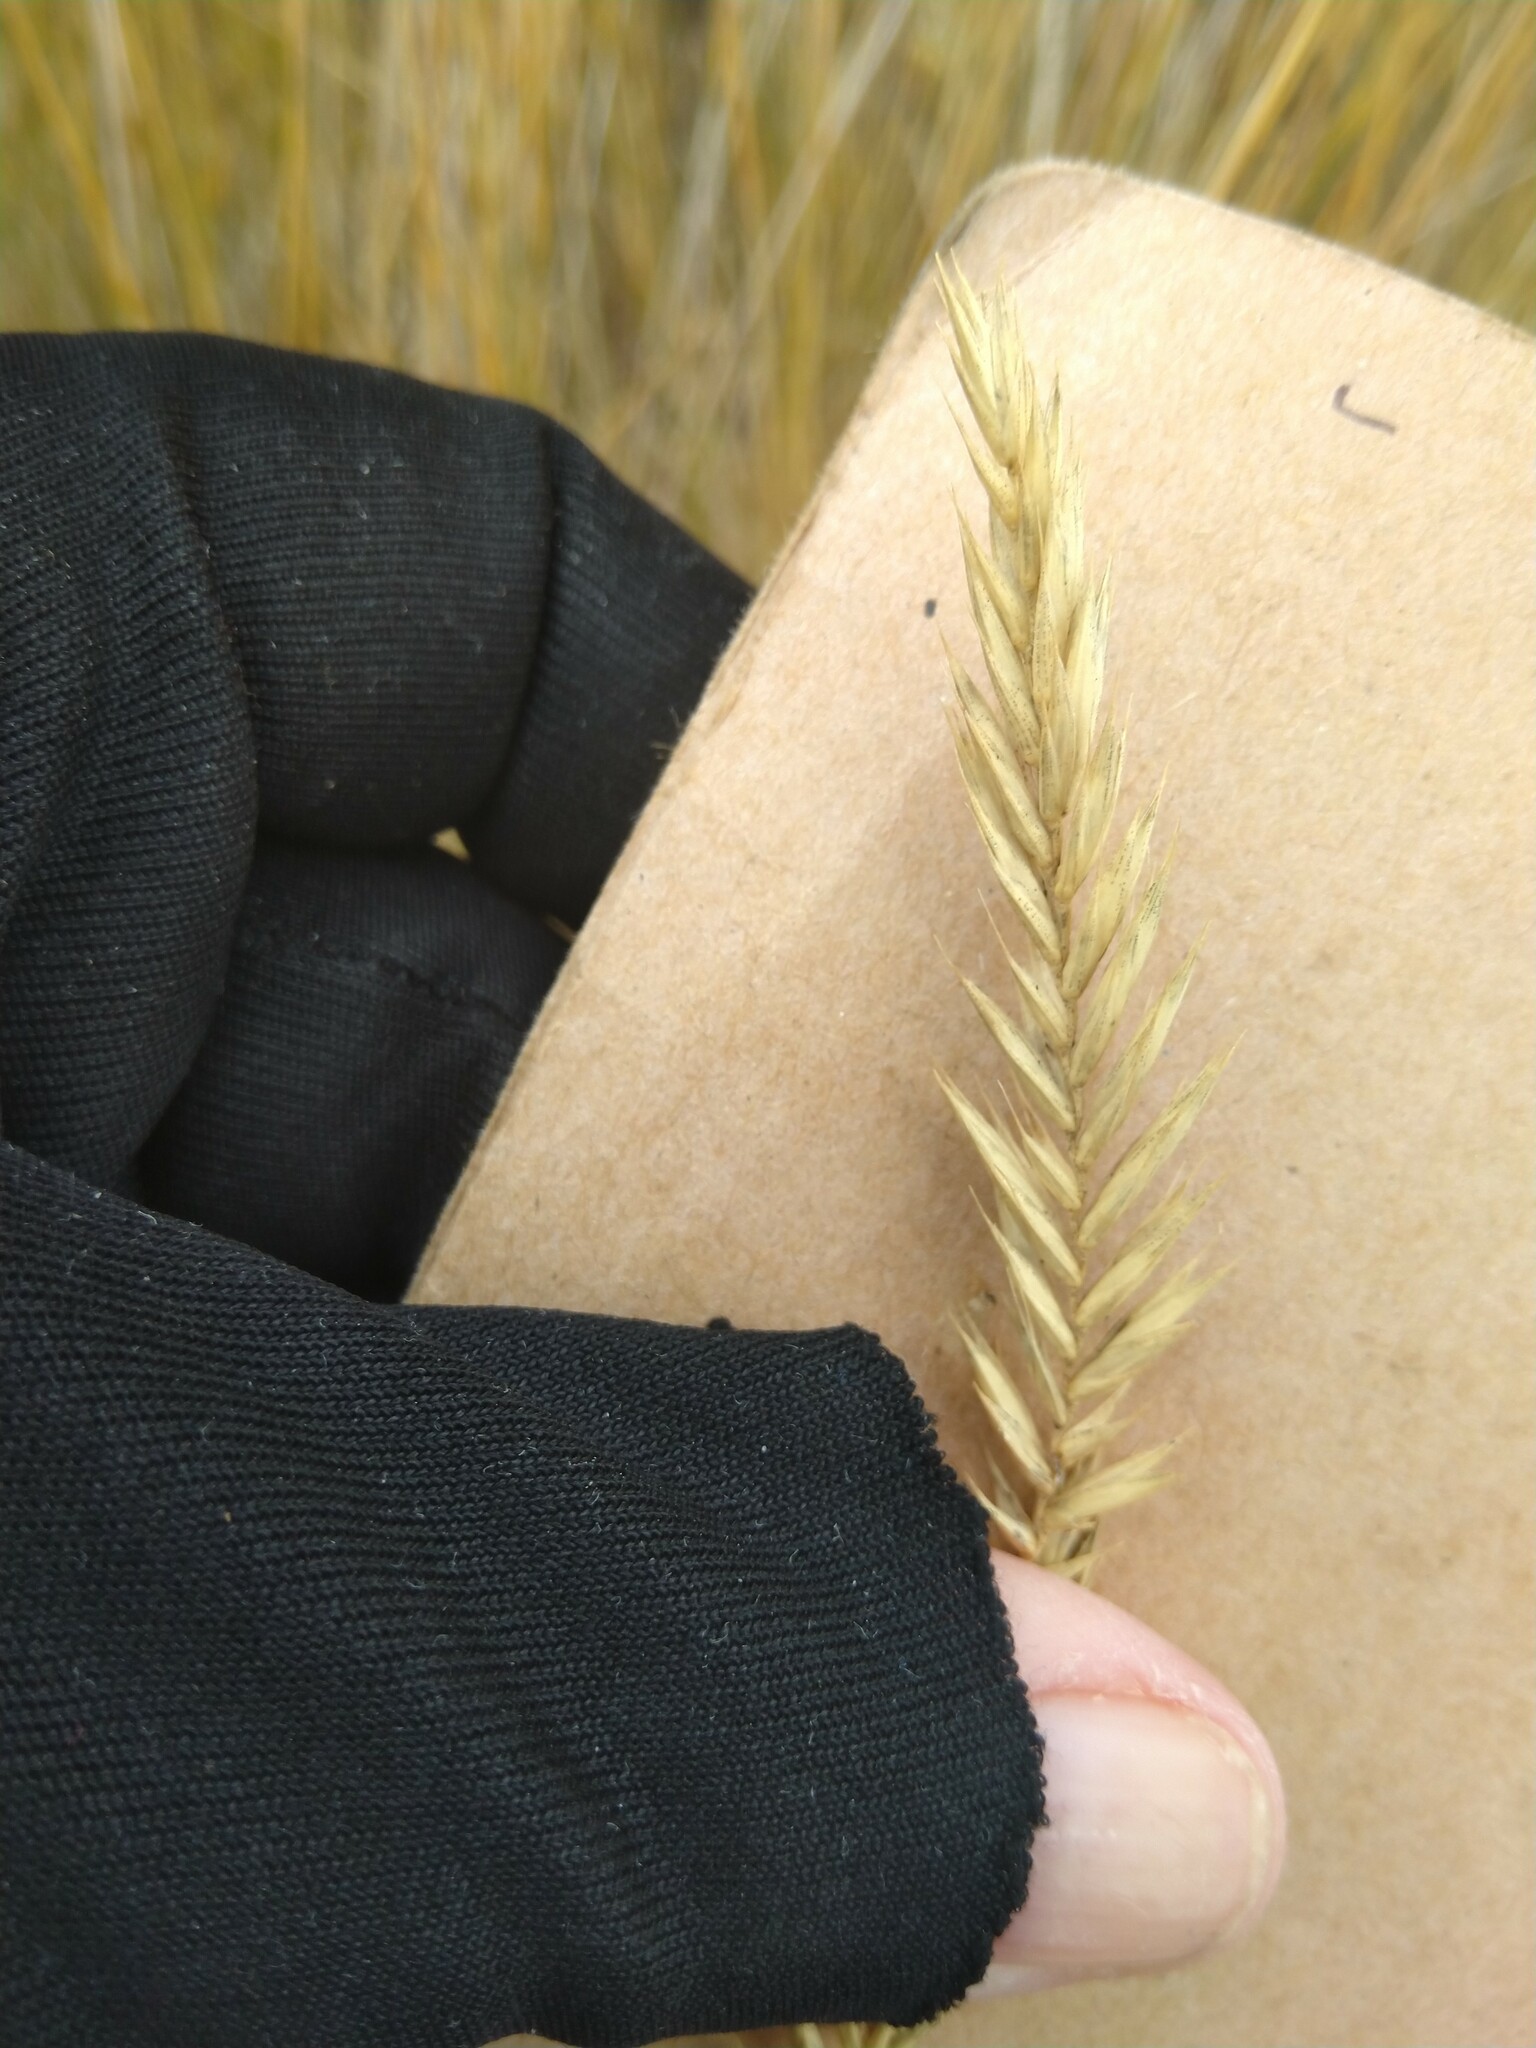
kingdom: Plantae
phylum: Tracheophyta
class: Liliopsida
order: Poales
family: Poaceae
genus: Agropyron
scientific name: Agropyron cristatum
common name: Crested wheatgrass
